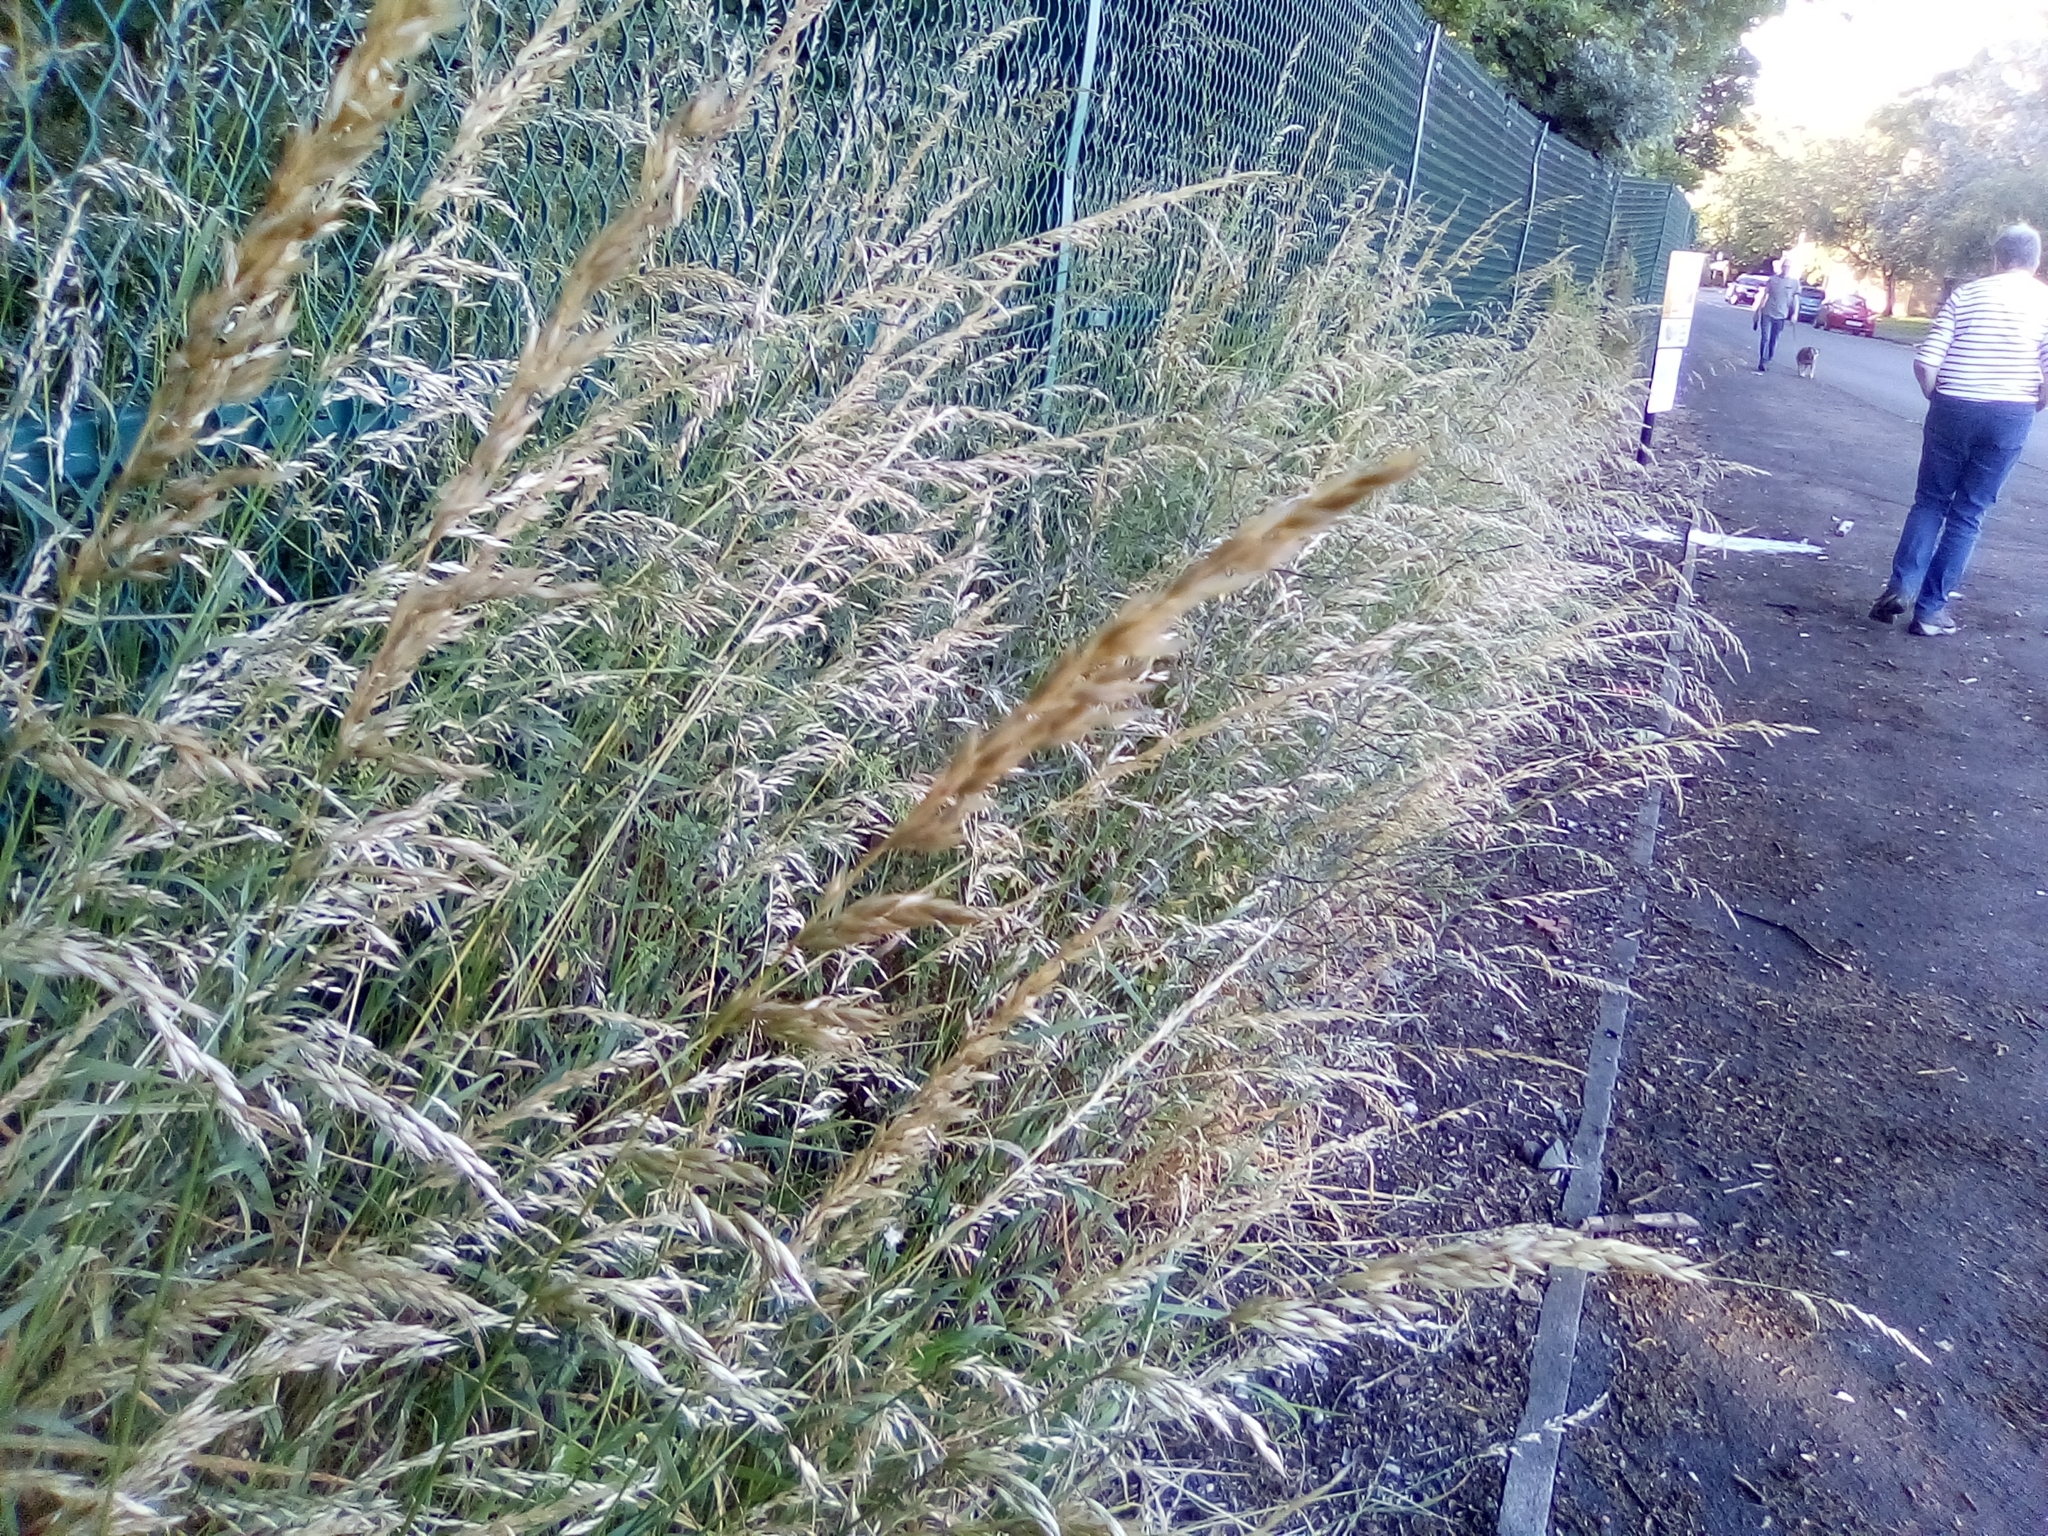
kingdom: Plantae
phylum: Tracheophyta
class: Liliopsida
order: Poales
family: Poaceae
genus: Arrhenatherum
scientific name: Arrhenatherum elatius
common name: Tall oatgrass
